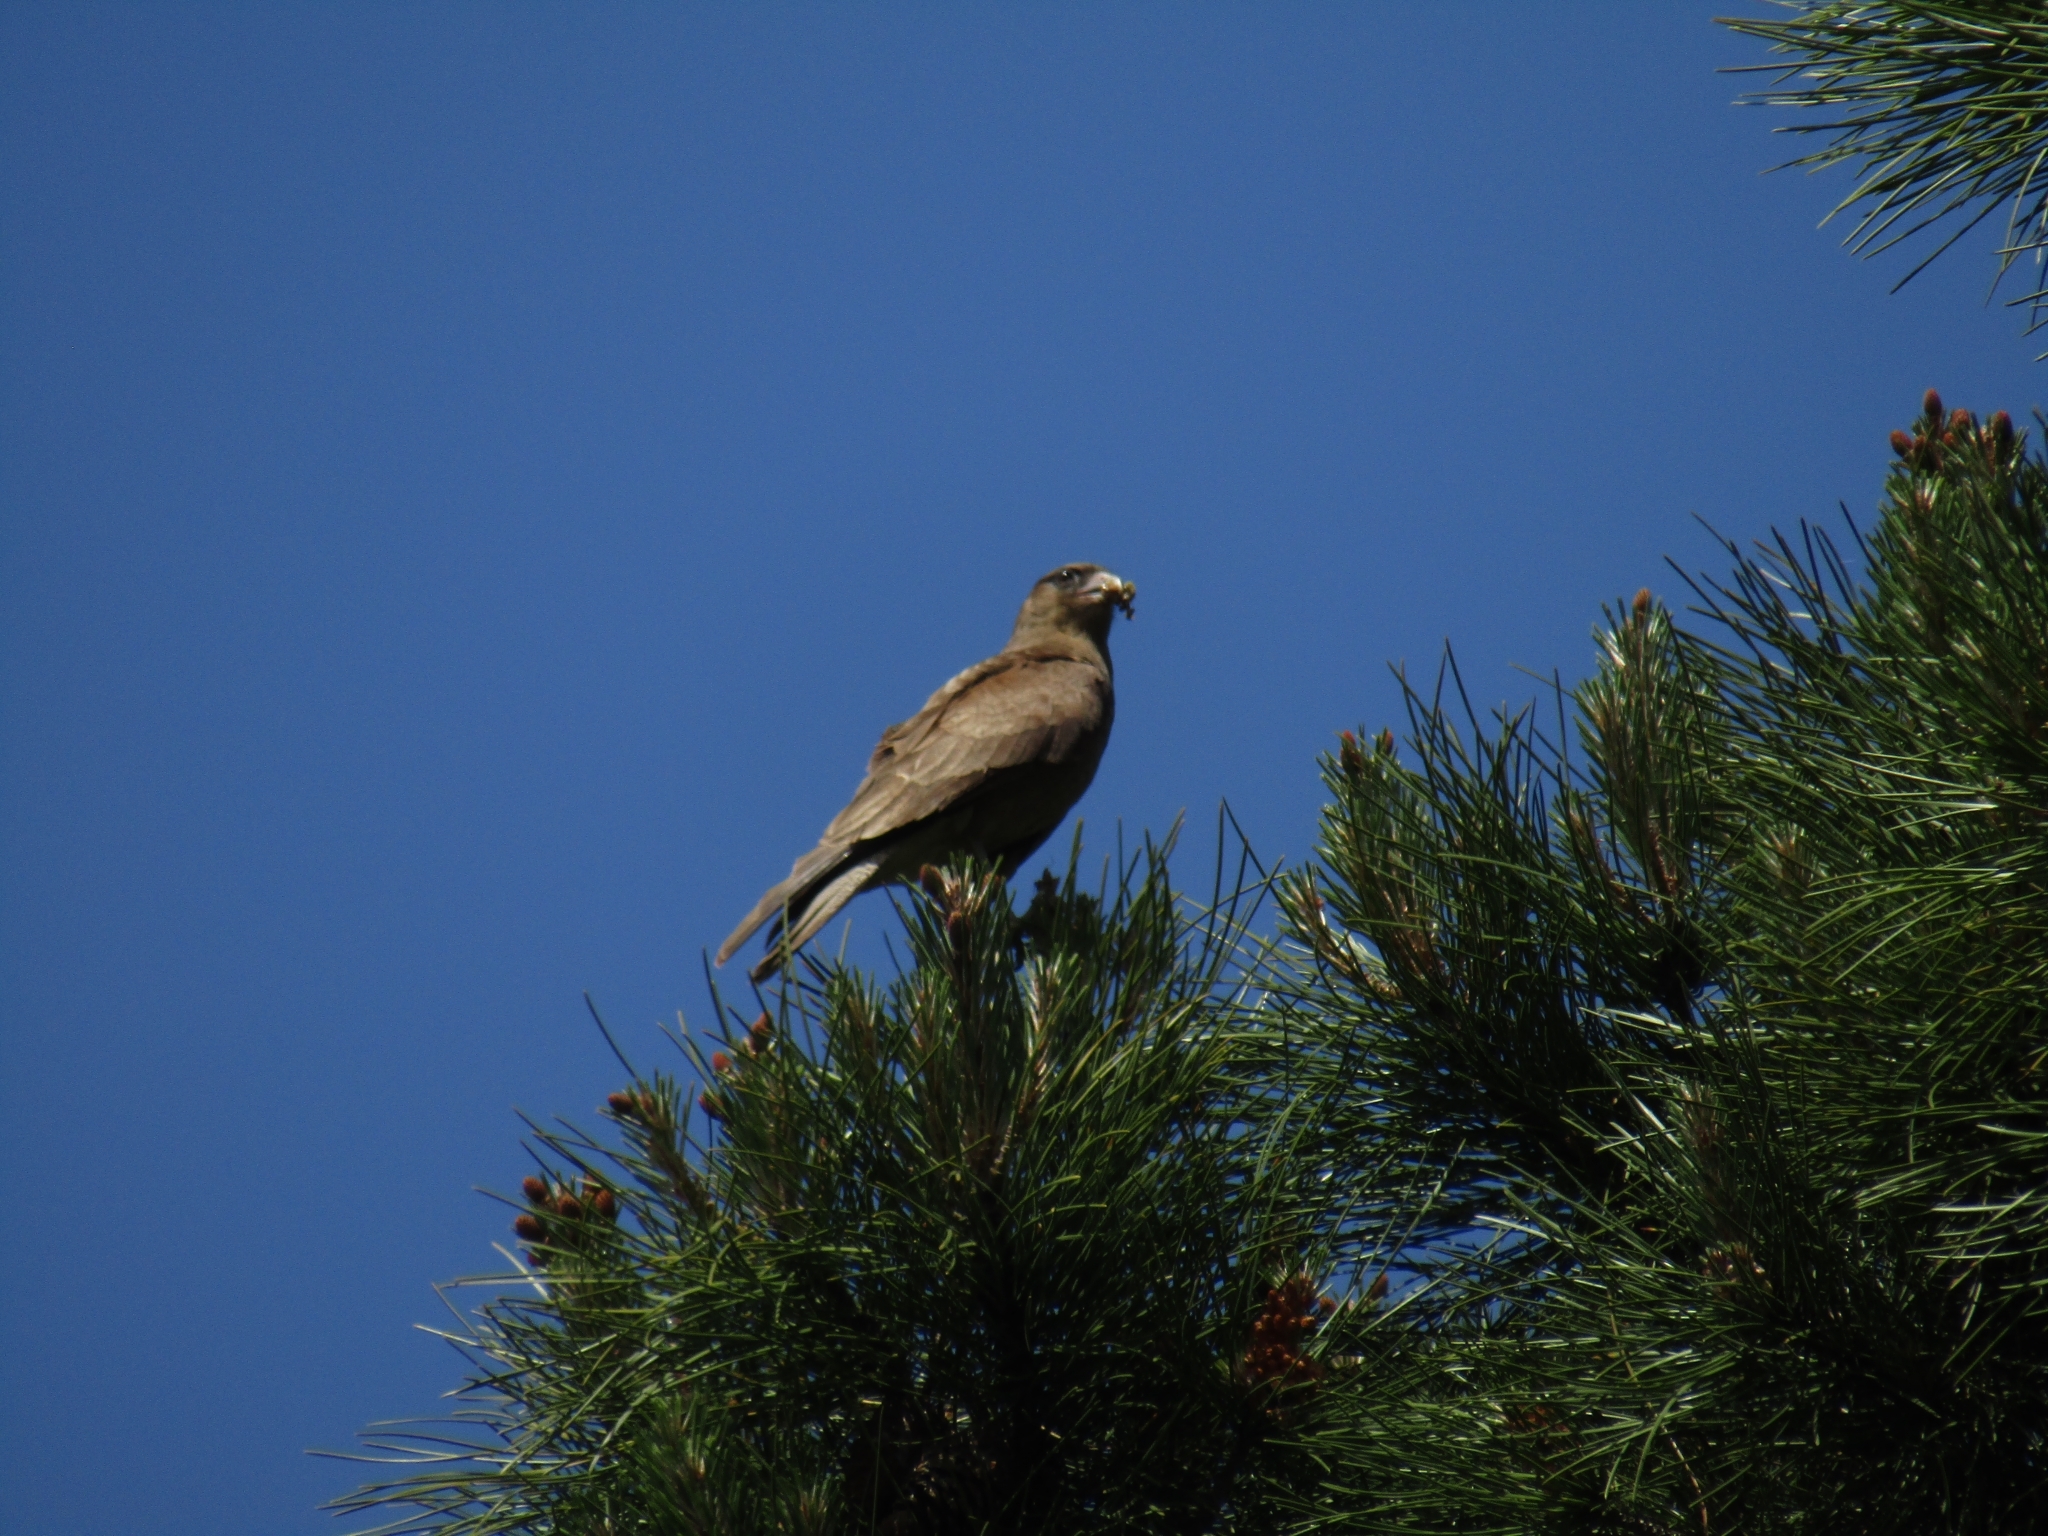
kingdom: Animalia
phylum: Chordata
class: Aves
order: Falconiformes
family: Falconidae
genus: Daptrius
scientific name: Daptrius
